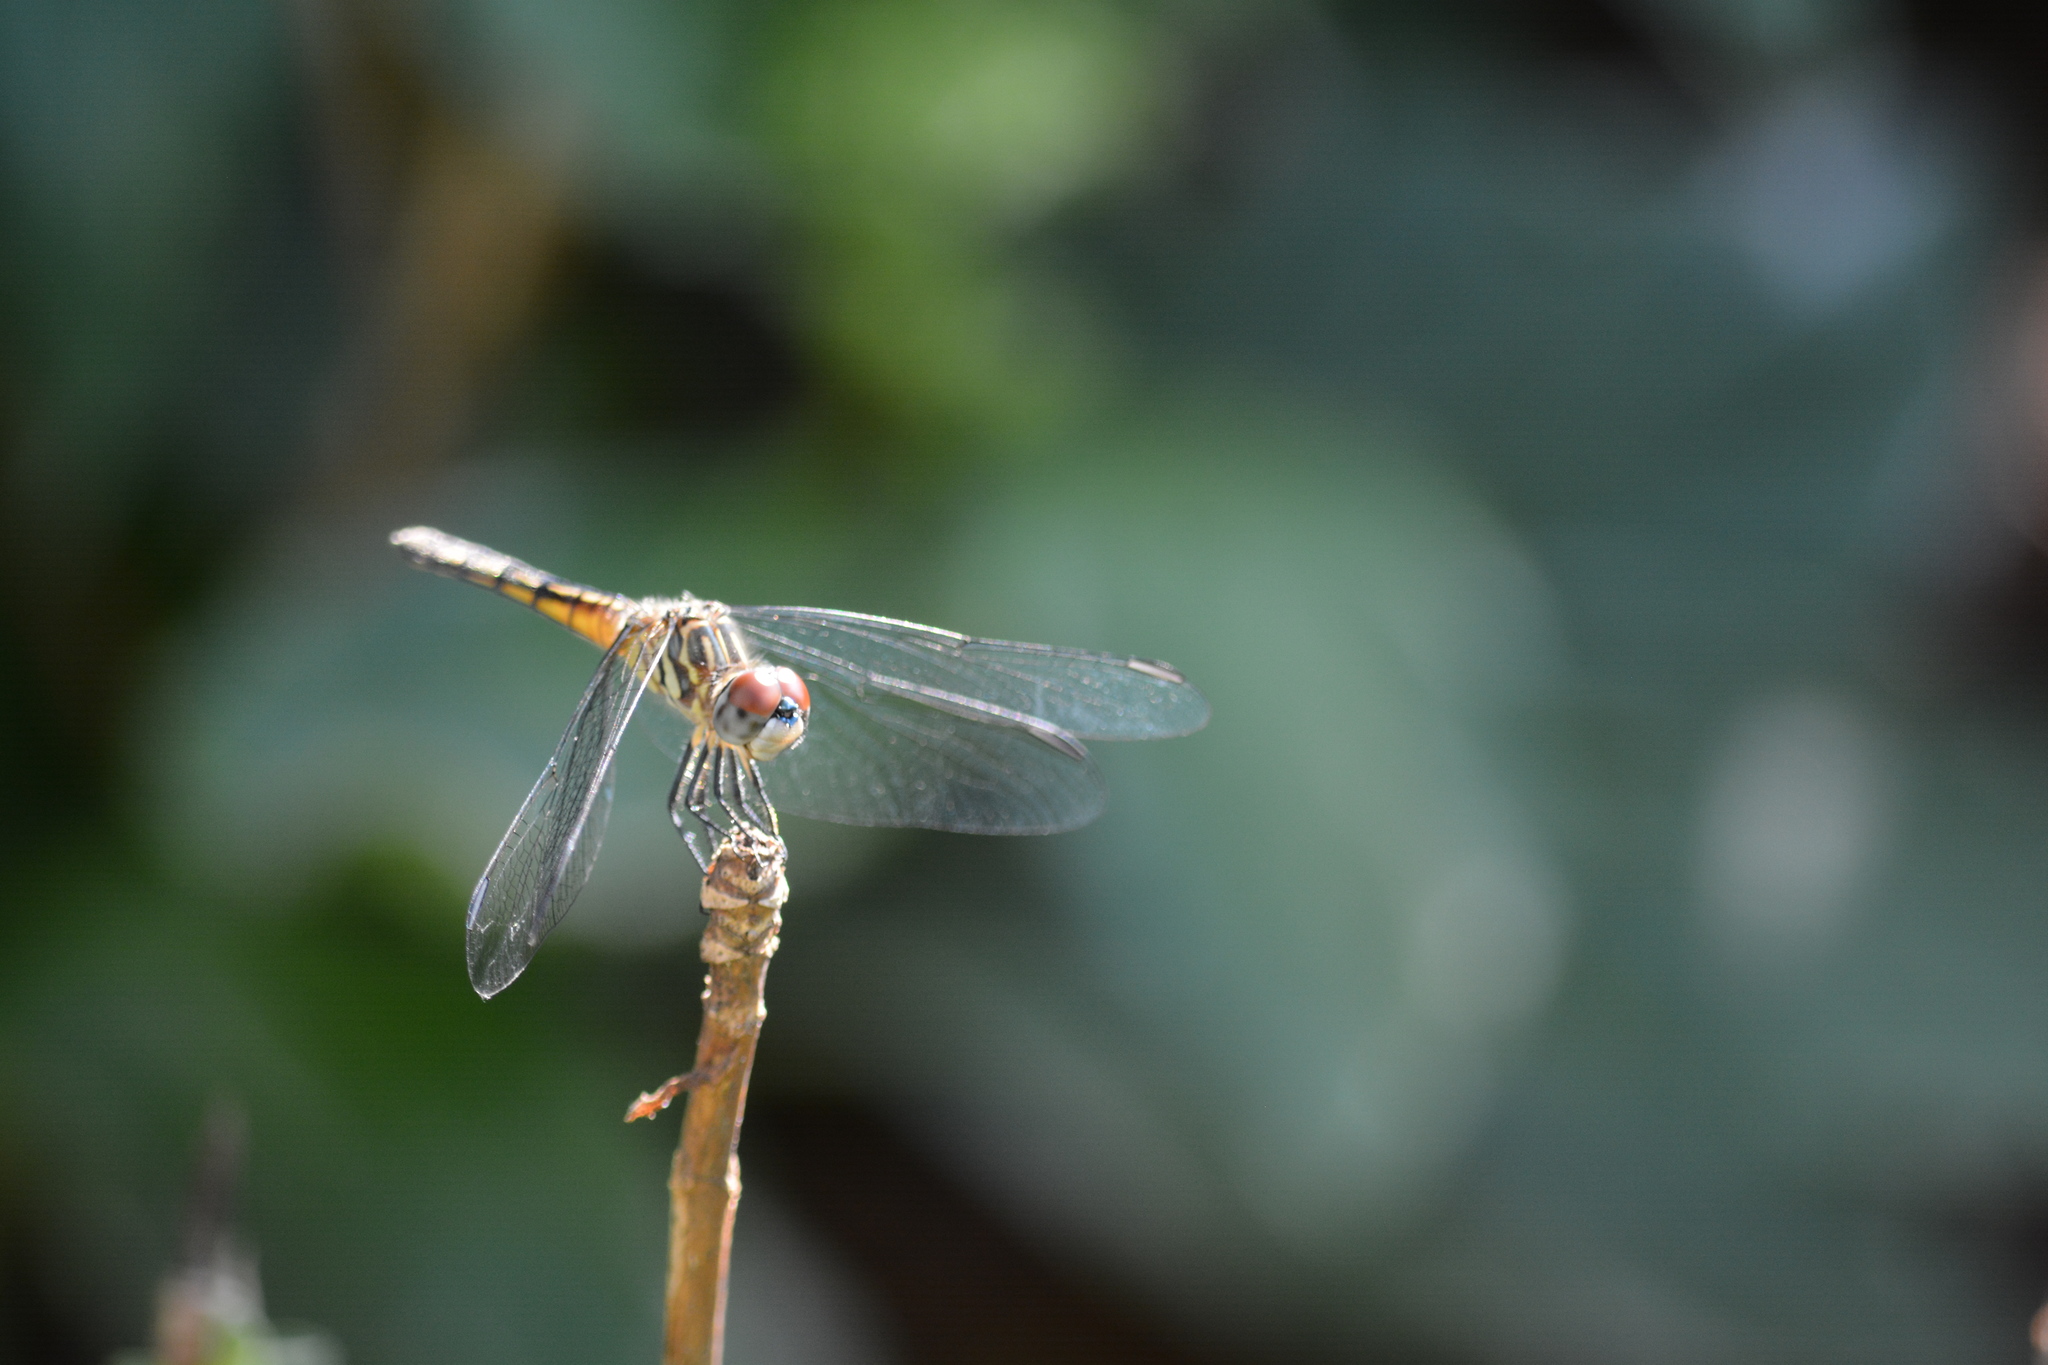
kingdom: Animalia
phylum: Arthropoda
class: Insecta
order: Odonata
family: Libellulidae
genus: Pachydiplax
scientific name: Pachydiplax longipennis
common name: Blue dasher
